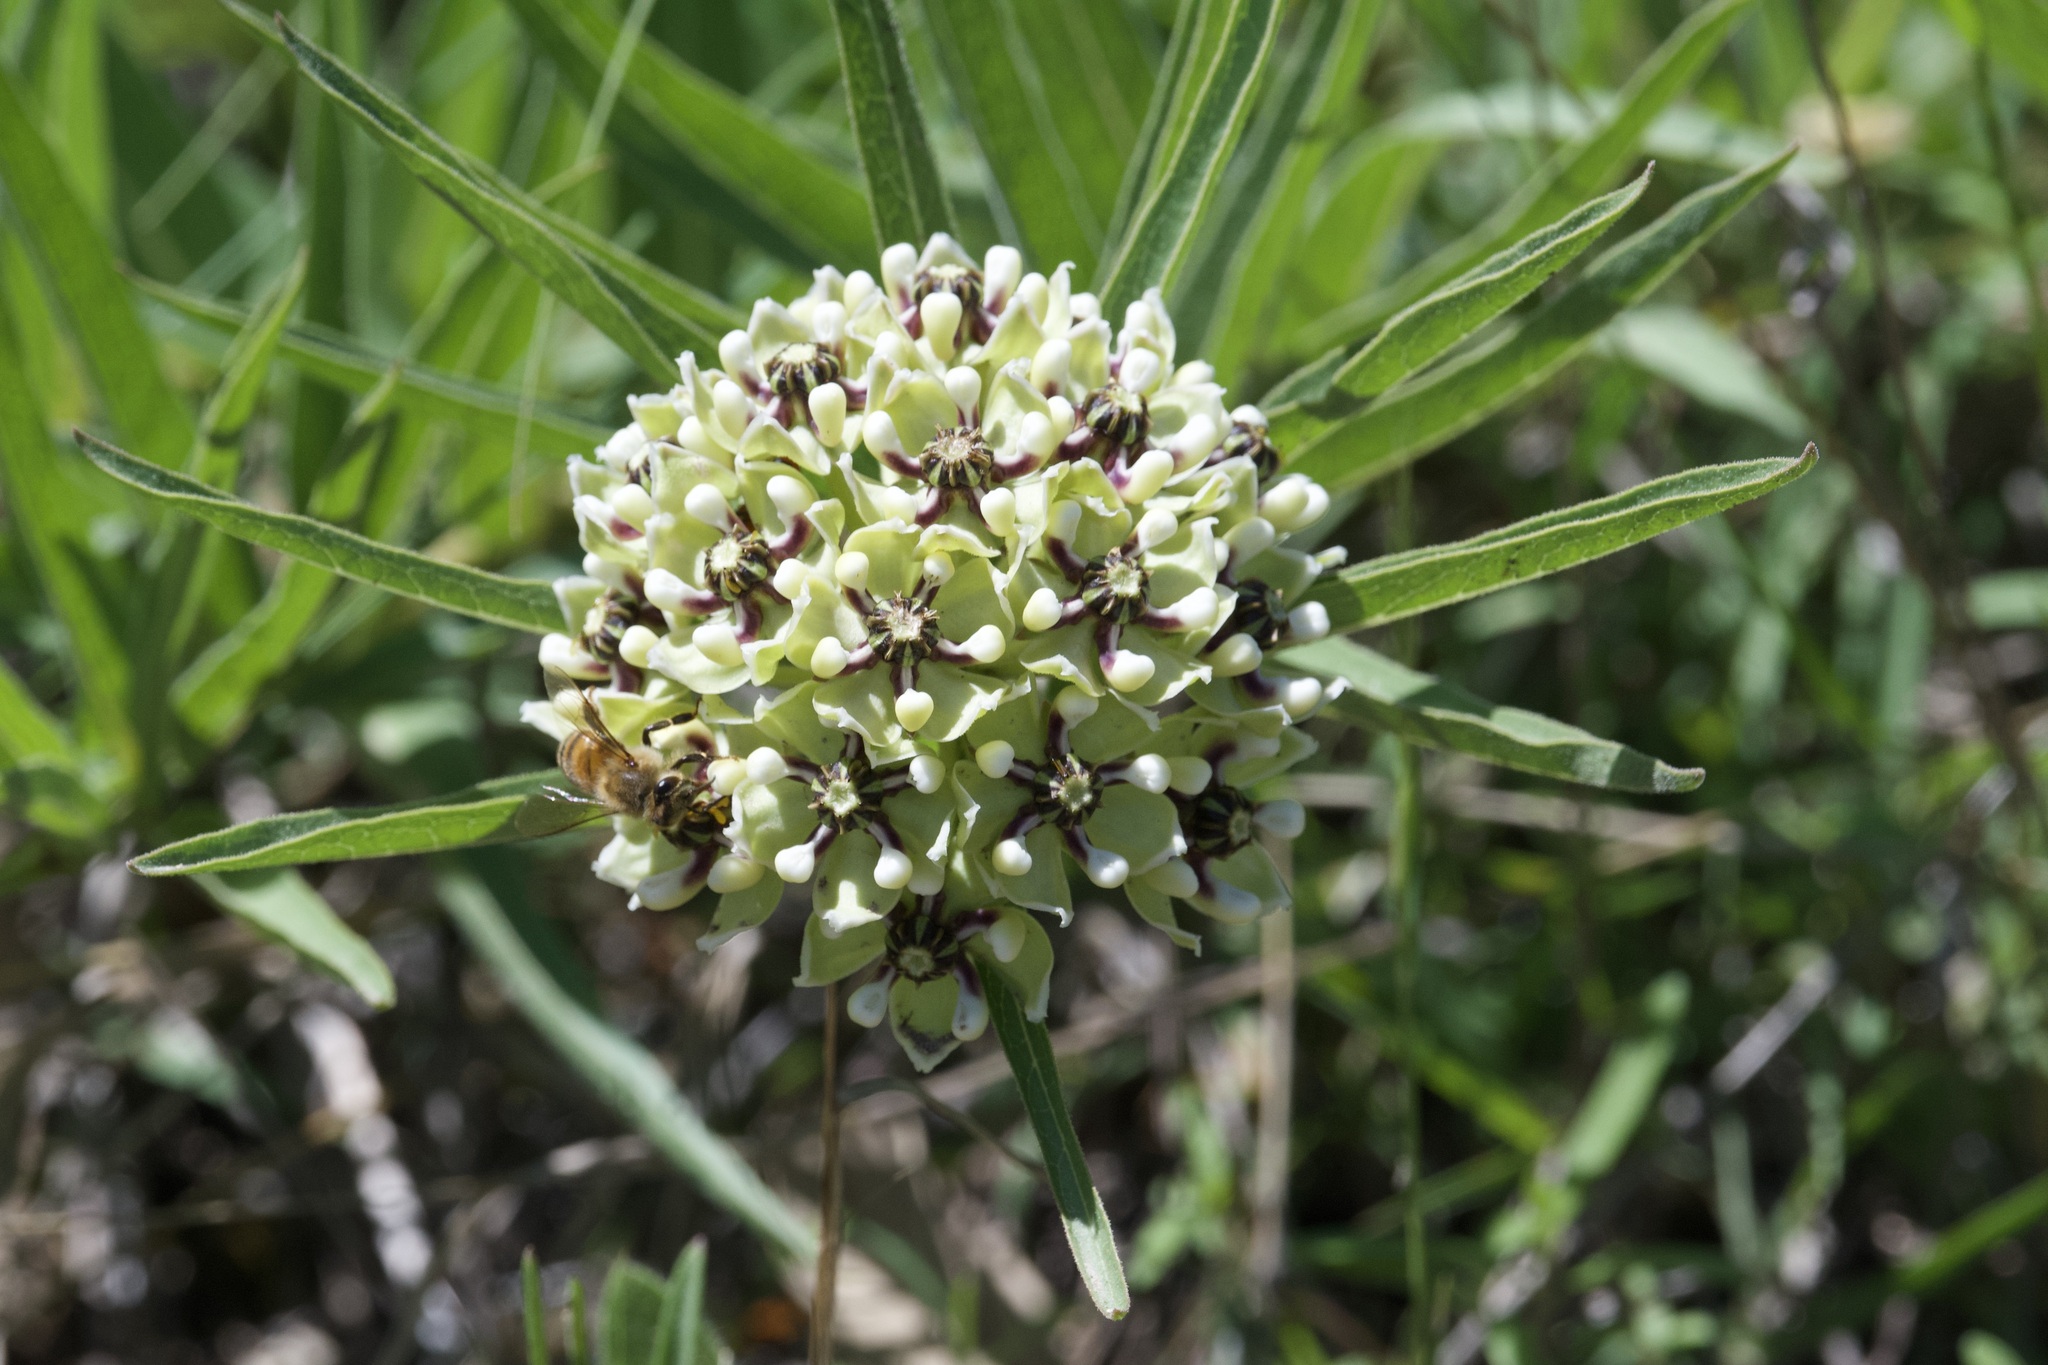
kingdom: Plantae
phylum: Tracheophyta
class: Magnoliopsida
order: Gentianales
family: Apocynaceae
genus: Asclepias
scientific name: Asclepias asperula
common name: Antelope horns
